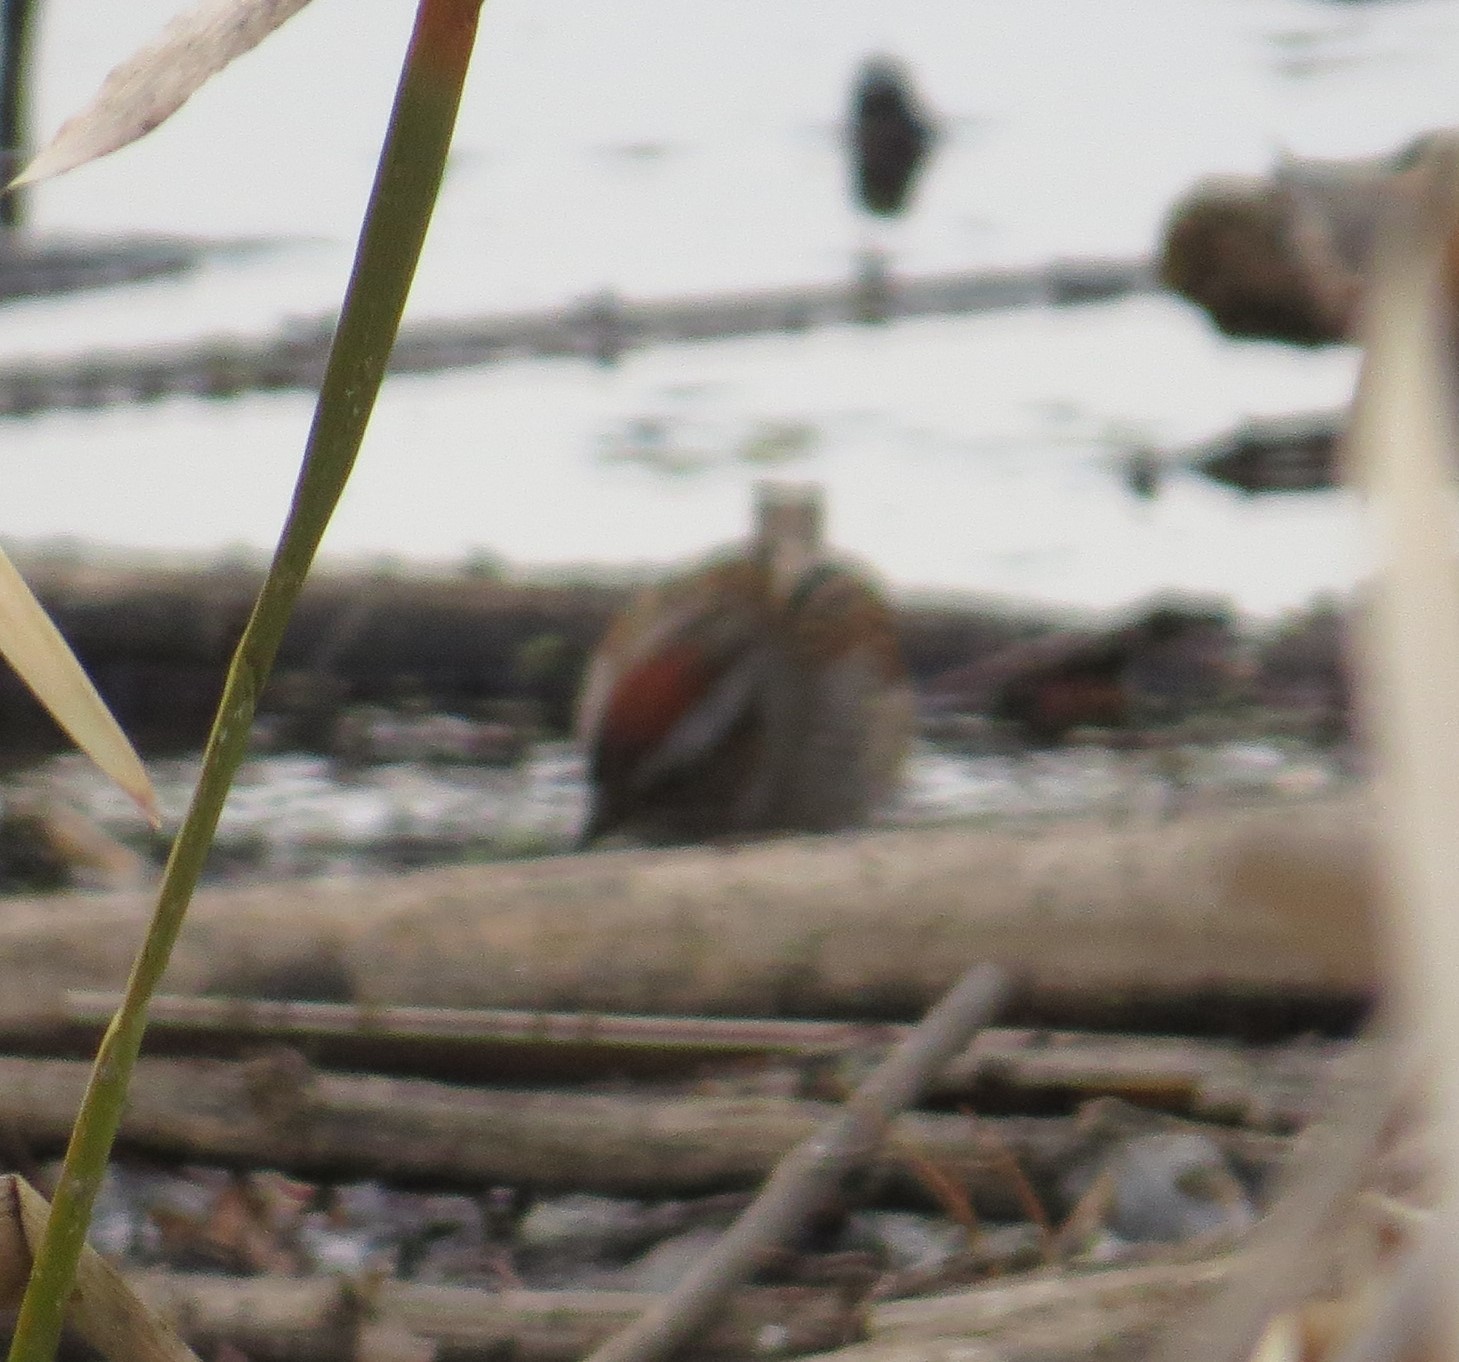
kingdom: Animalia
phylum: Chordata
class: Aves
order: Passeriformes
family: Passerellidae
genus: Melospiza
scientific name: Melospiza georgiana
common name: Swamp sparrow
